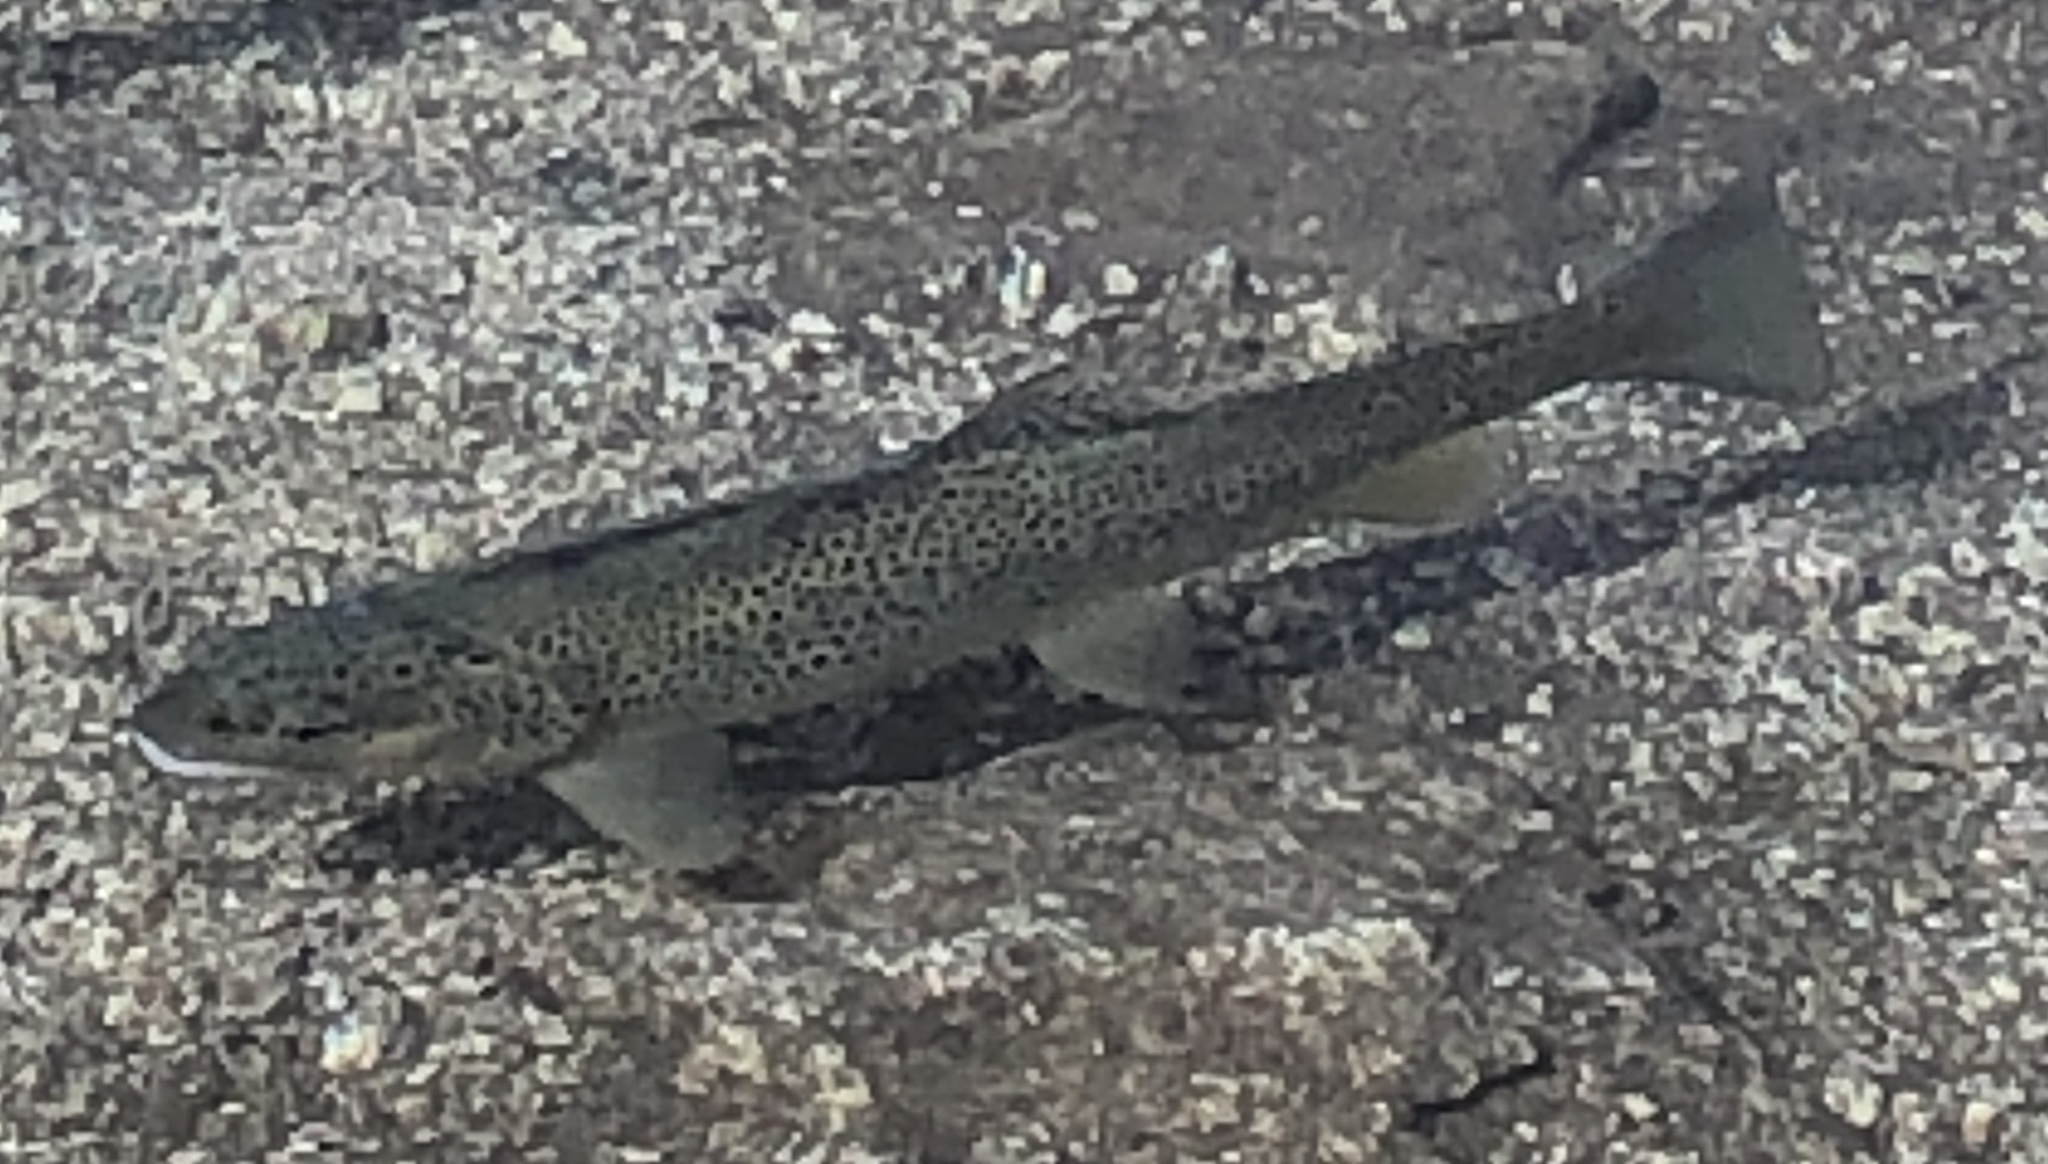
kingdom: Animalia
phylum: Chordata
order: Salmoniformes
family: Salmonidae
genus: Salmo
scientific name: Salmo trutta
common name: Brown trout
